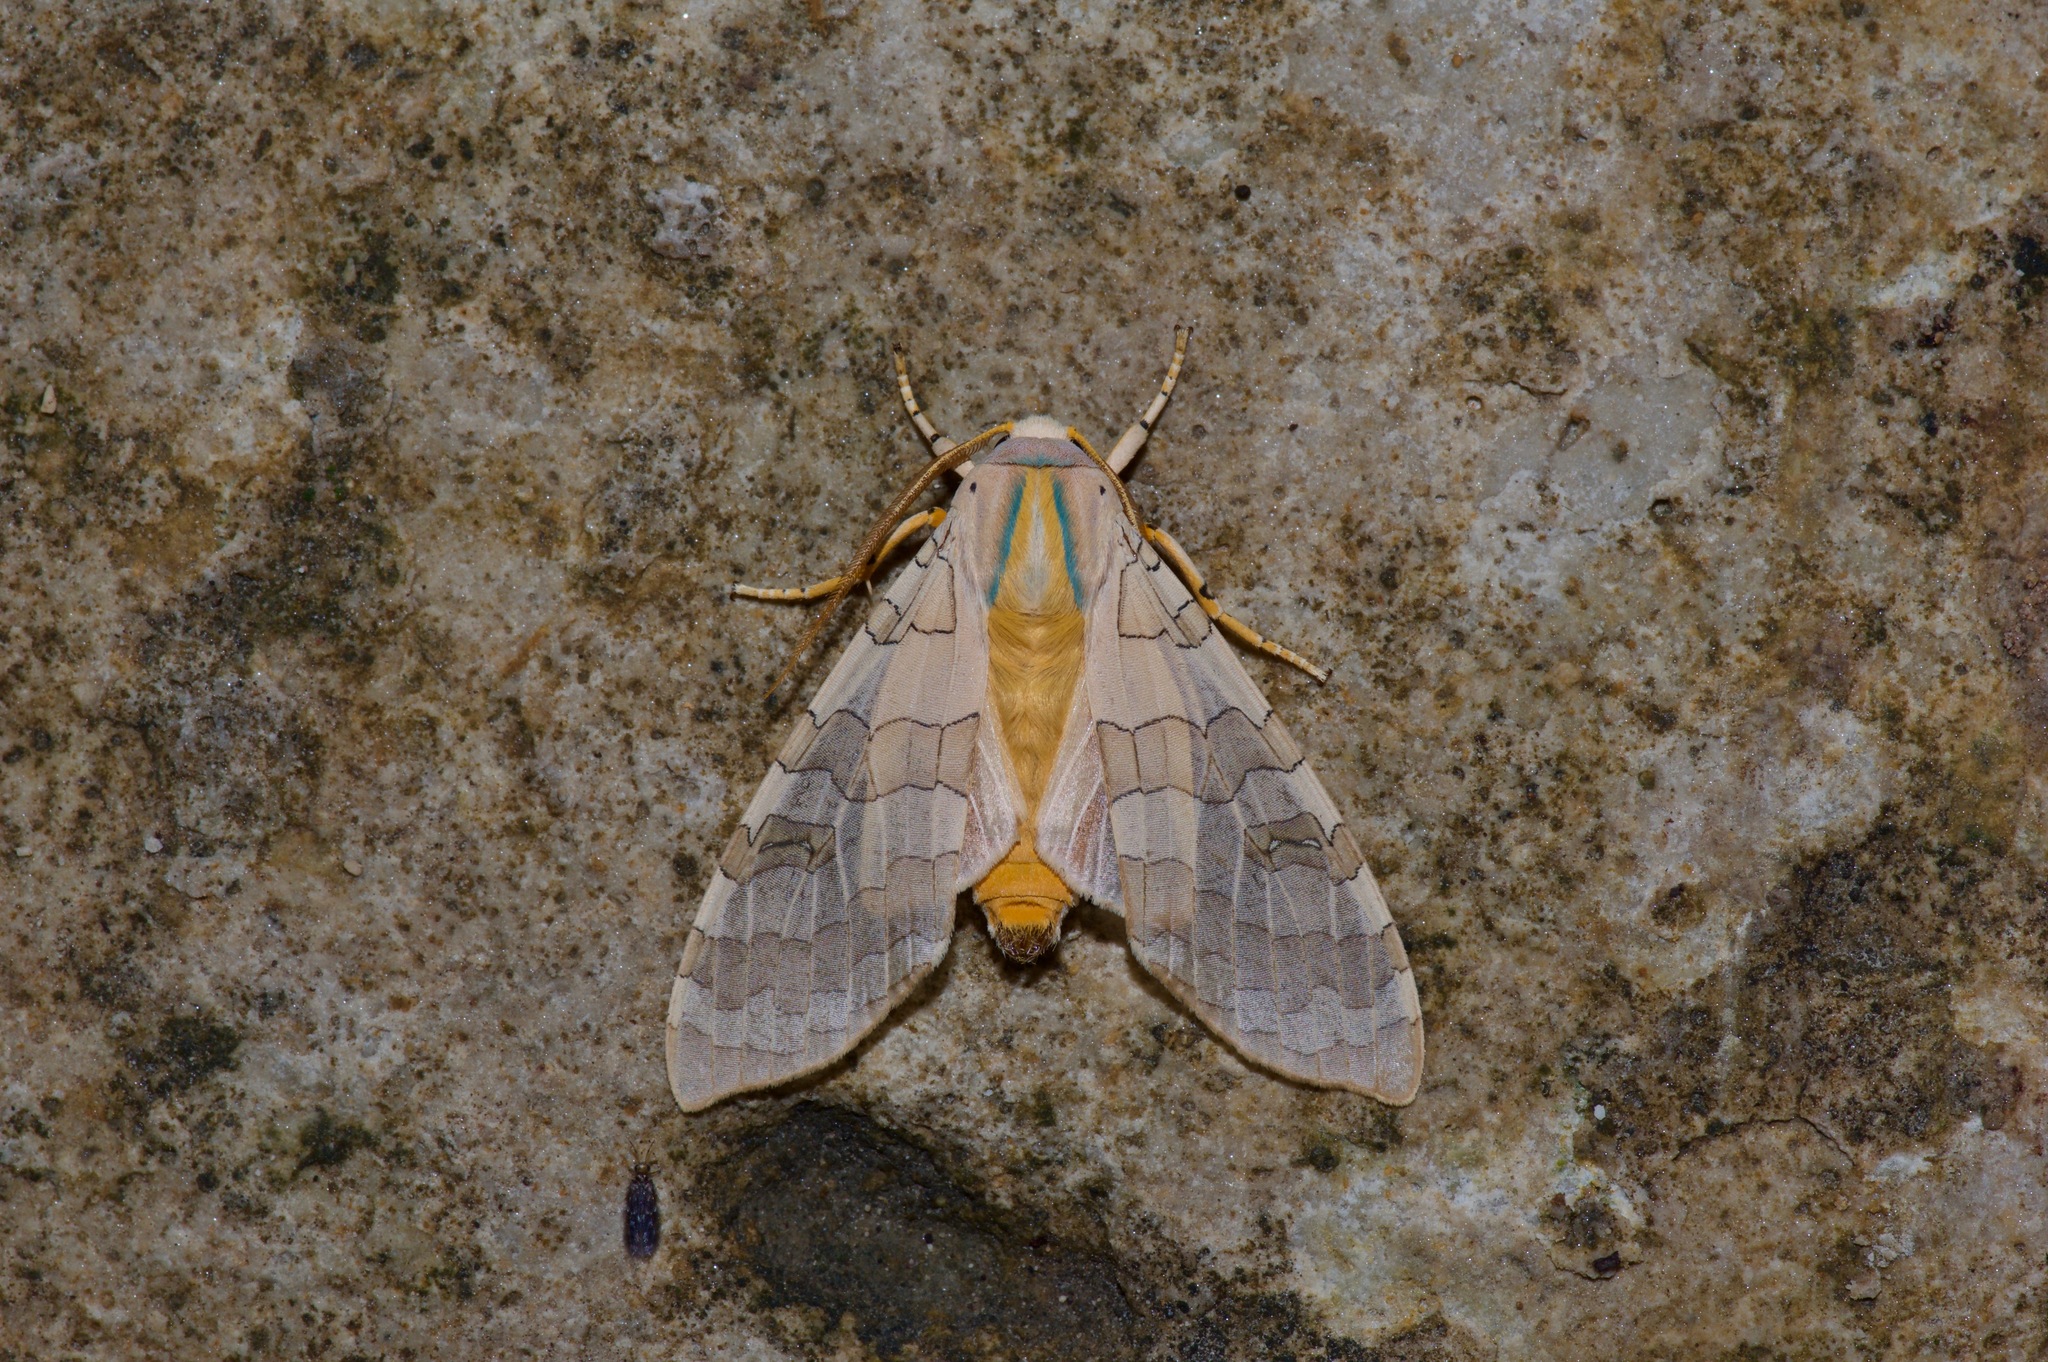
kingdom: Animalia
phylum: Arthropoda
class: Insecta
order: Lepidoptera
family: Erebidae
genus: Halysidota
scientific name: Halysidota harrisii
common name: Sycamore tussock moth
